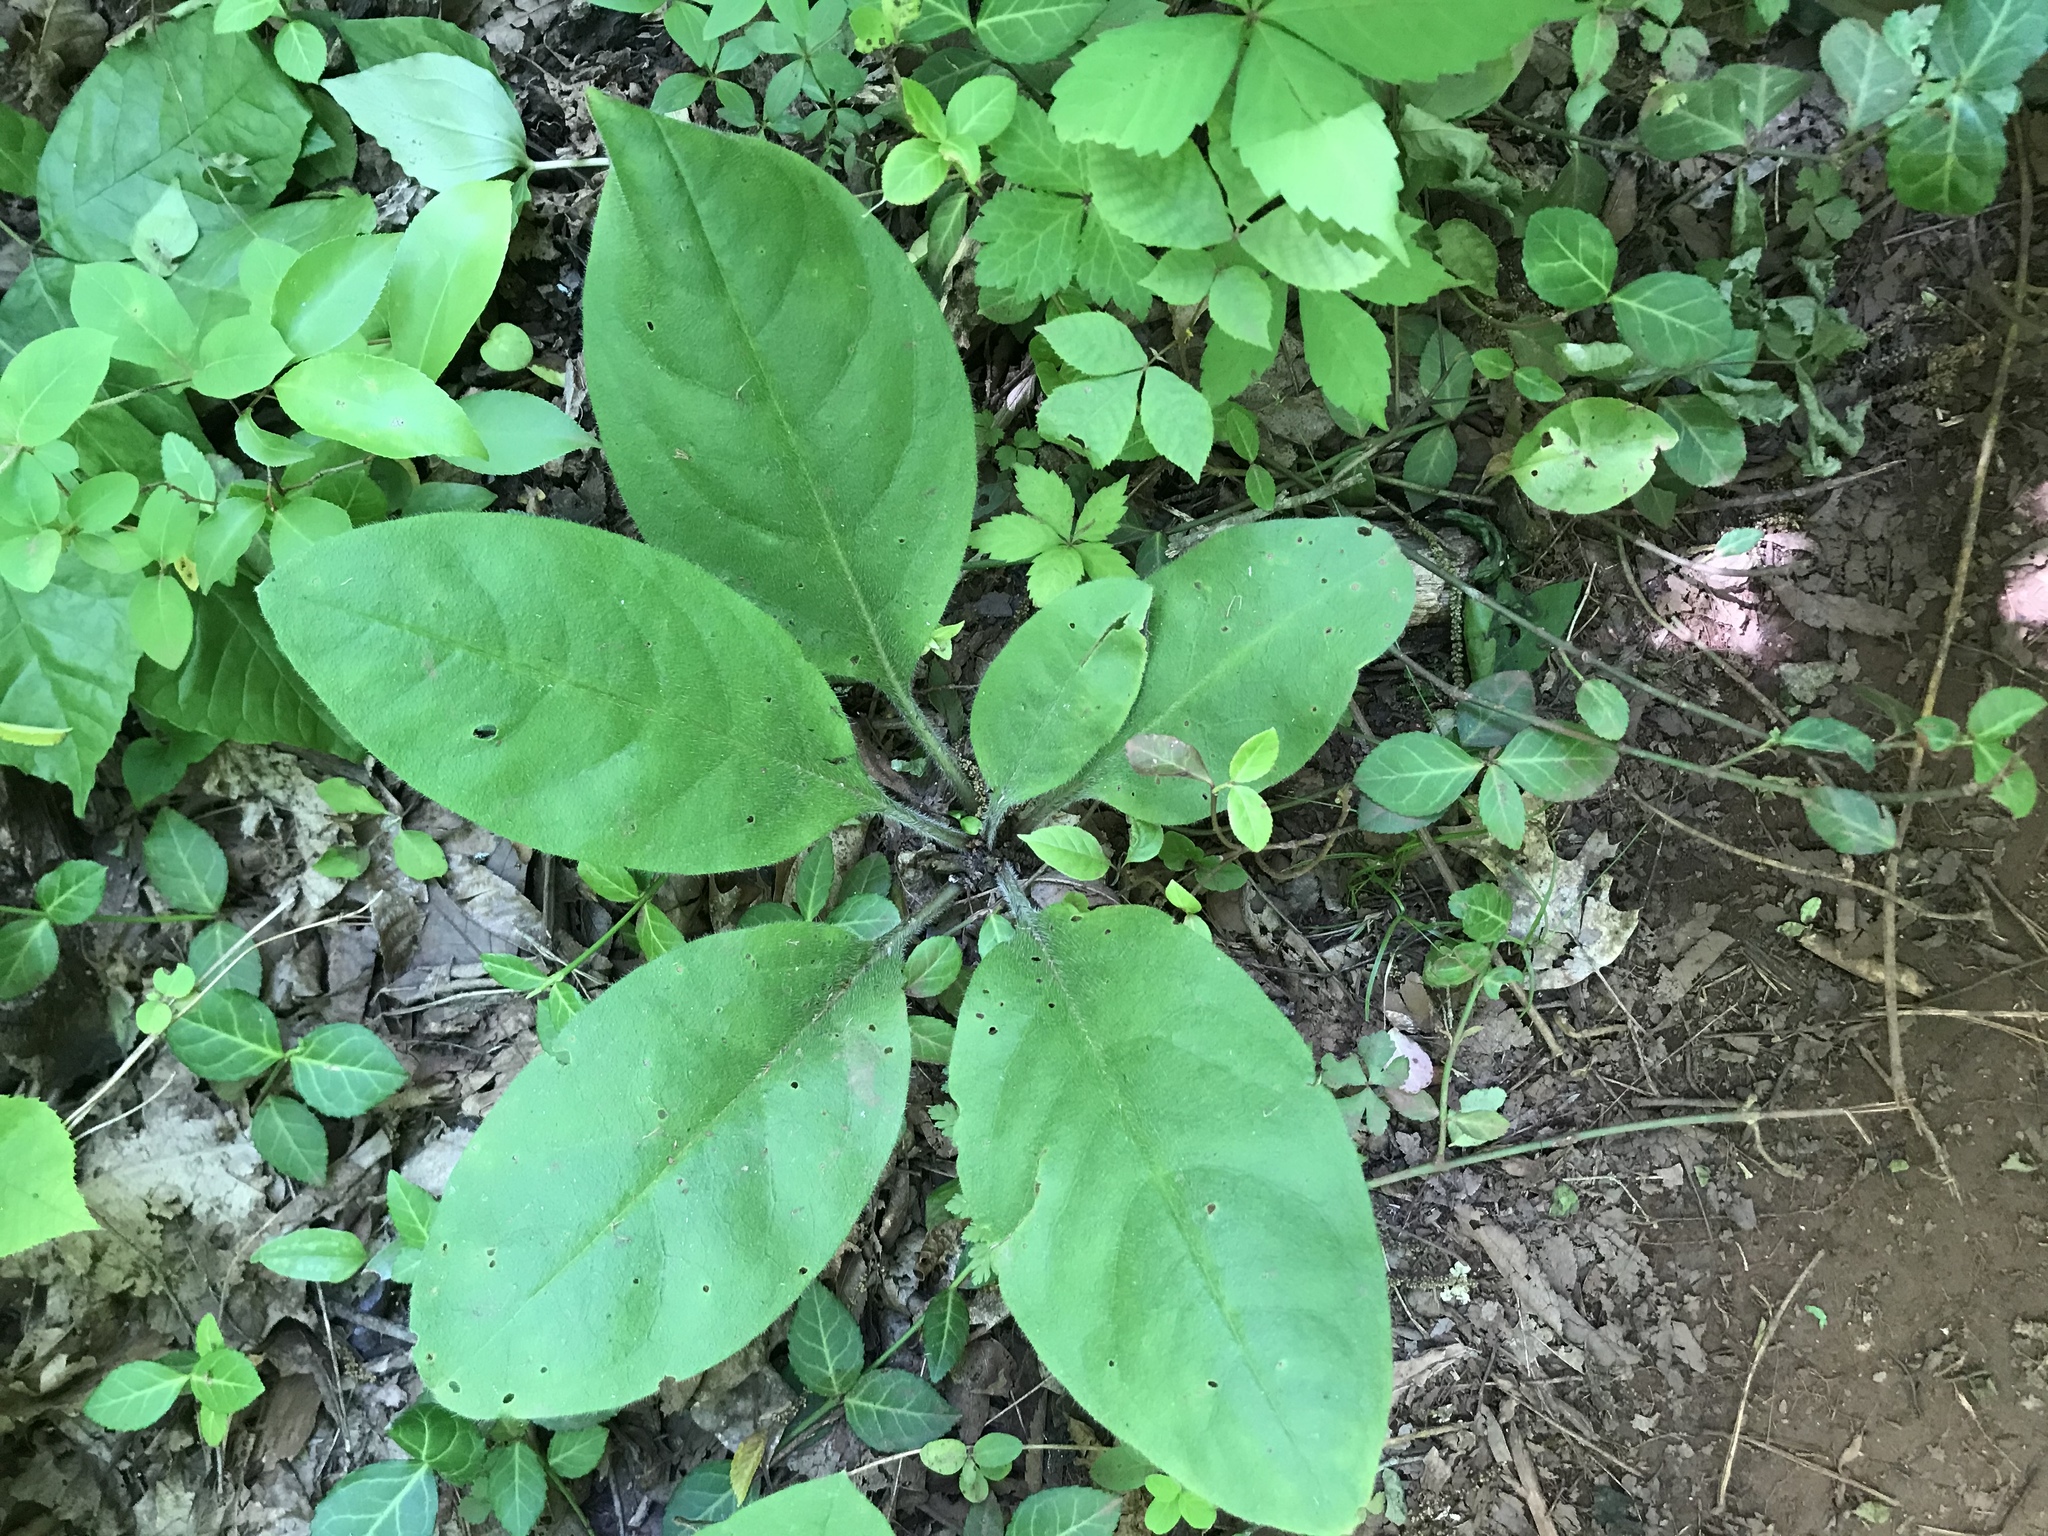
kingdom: Plantae
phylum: Tracheophyta
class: Magnoliopsida
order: Boraginales
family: Boraginaceae
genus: Andersonglossum
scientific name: Andersonglossum virginianum
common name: Wild comfrey
